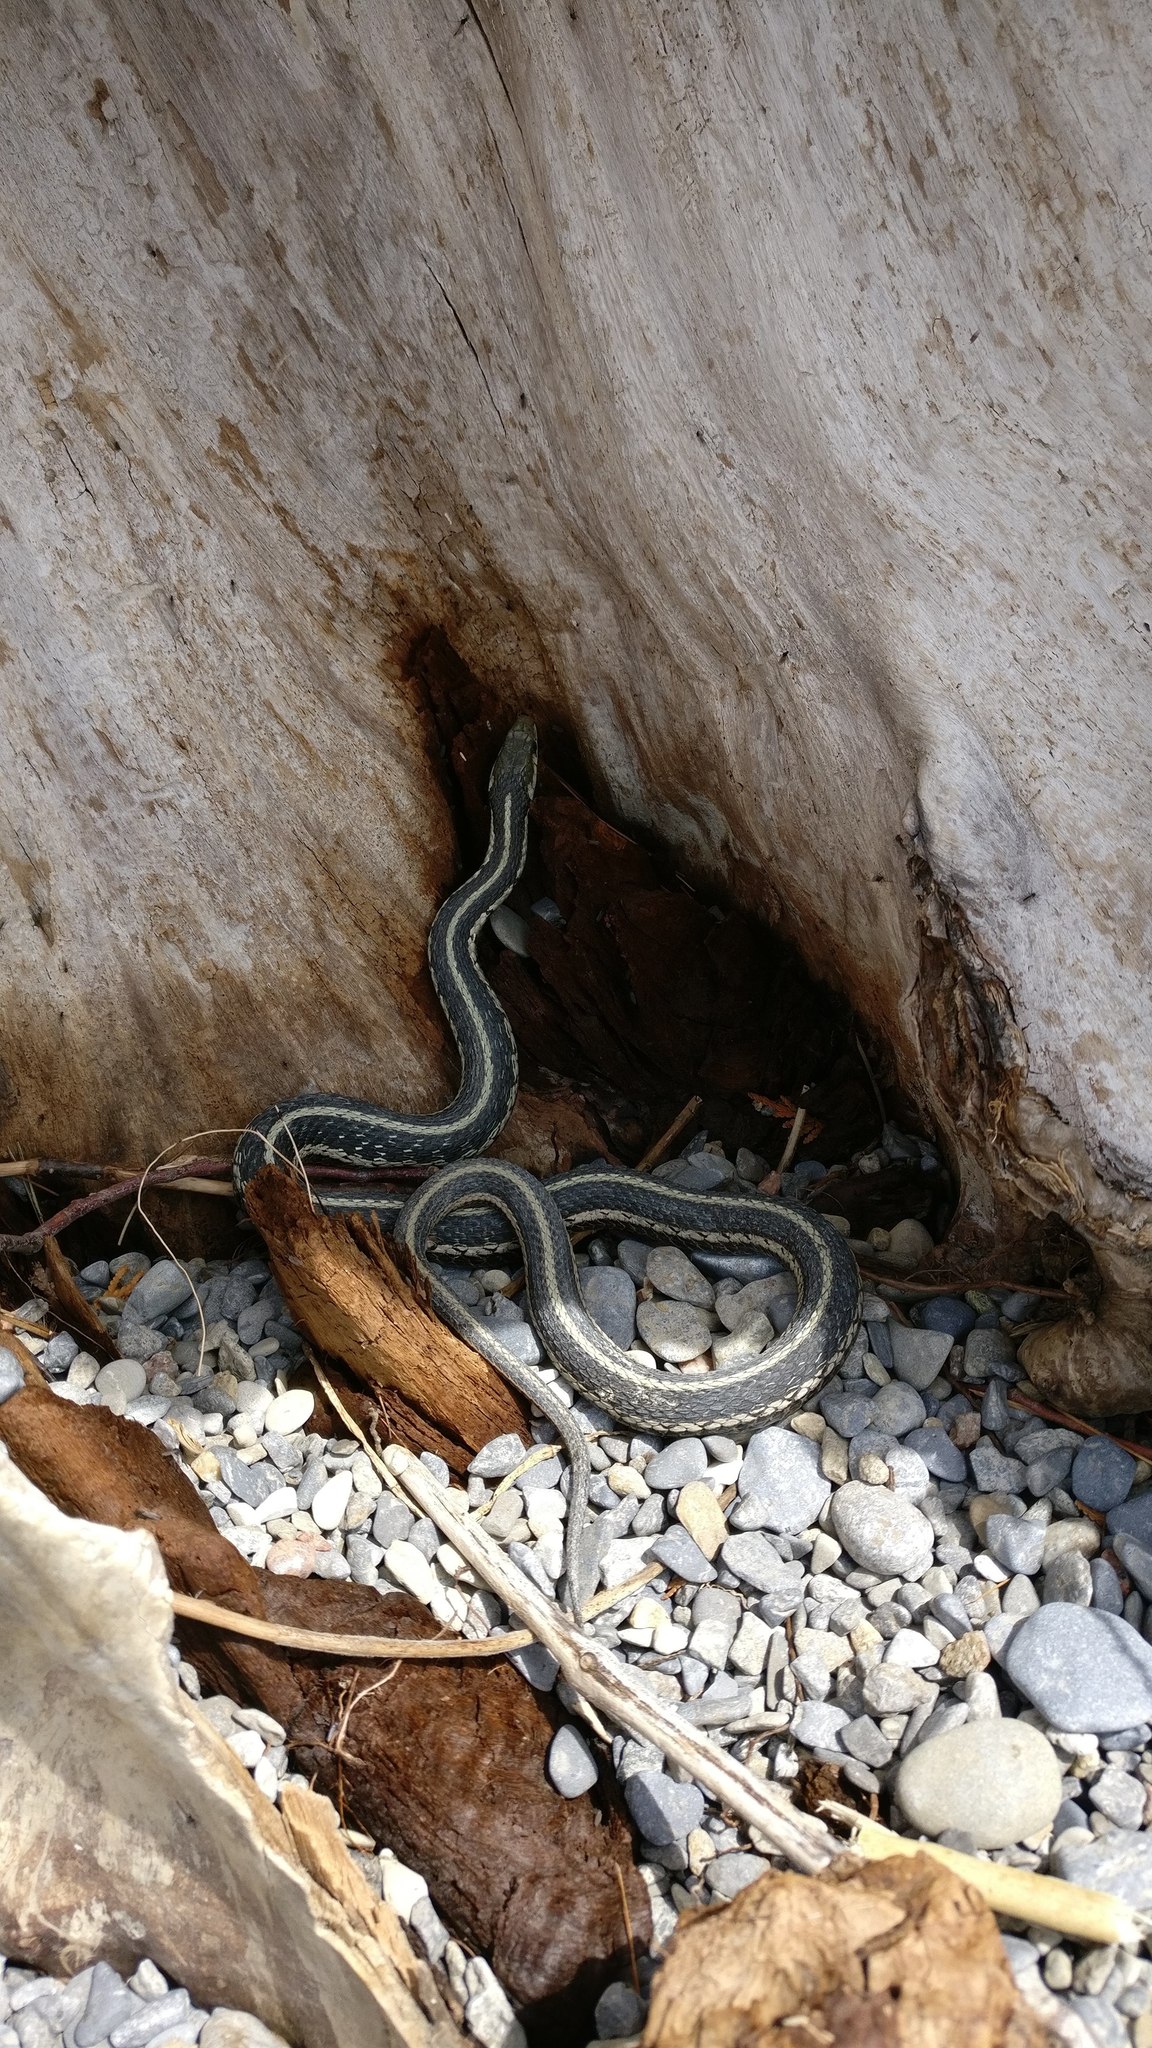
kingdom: Animalia
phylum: Chordata
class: Squamata
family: Colubridae
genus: Thamnophis
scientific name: Thamnophis sirtalis
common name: Common garter snake
